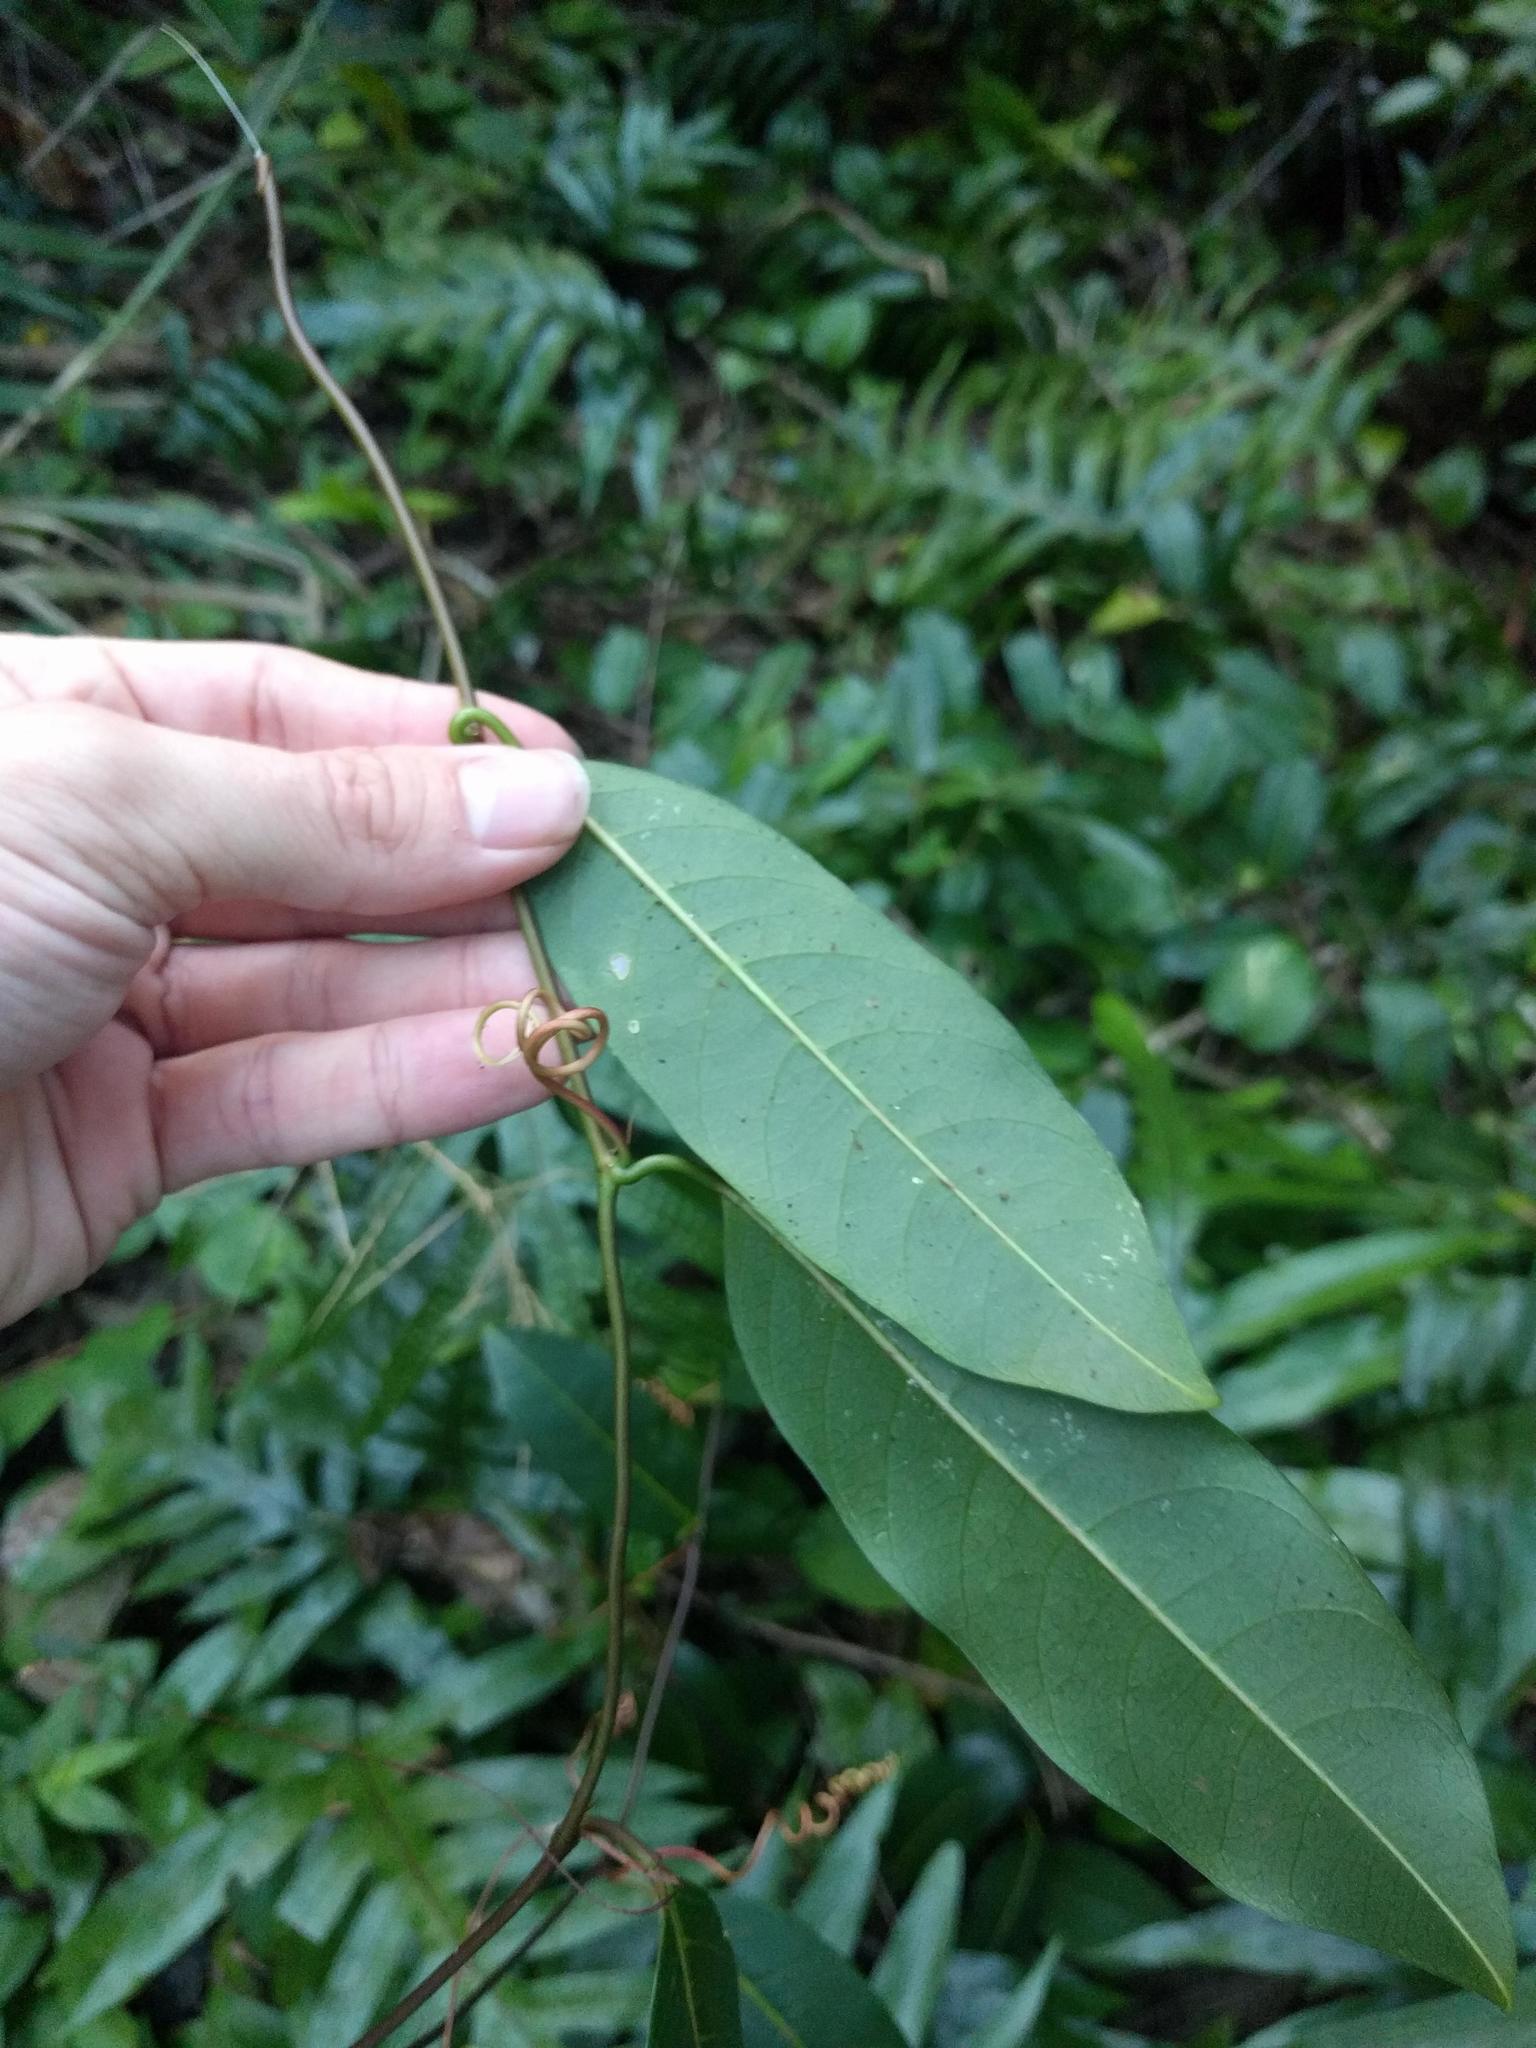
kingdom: Plantae
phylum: Tracheophyta
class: Magnoliopsida
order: Malpighiales
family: Passifloraceae
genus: Passiflora
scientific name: Passiflora laurifolia
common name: Bell apple
